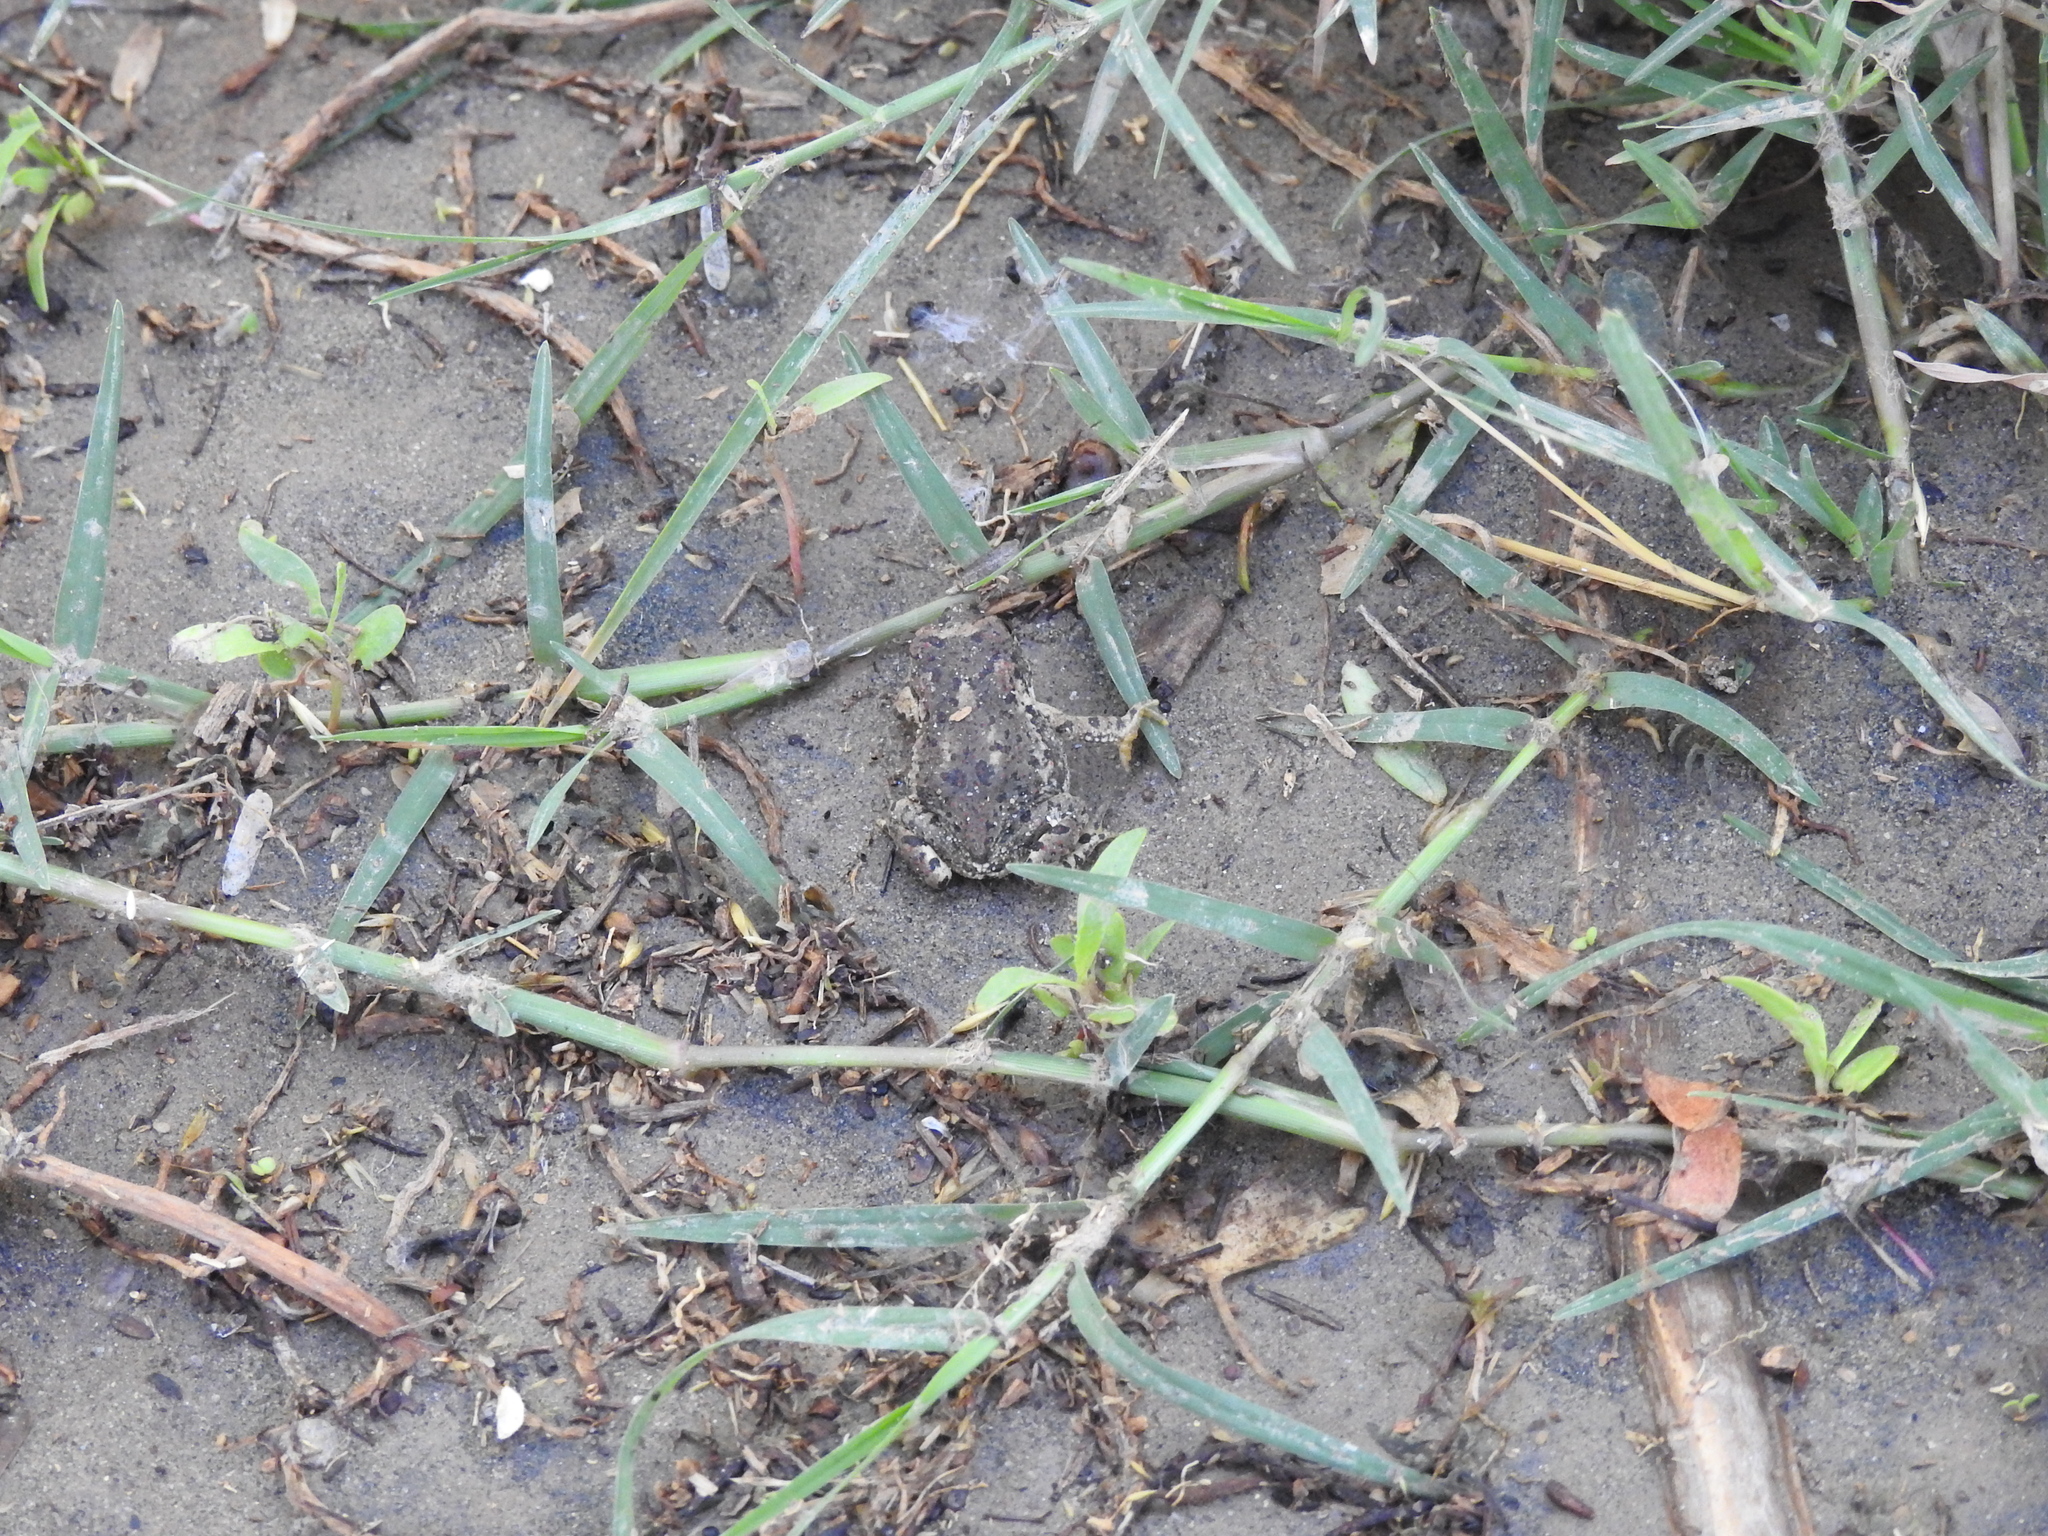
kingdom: Animalia
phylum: Chordata
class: Amphibia
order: Anura
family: Bufonidae
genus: Anaxyrus
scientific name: Anaxyrus microscaphus
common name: Arizona toad
